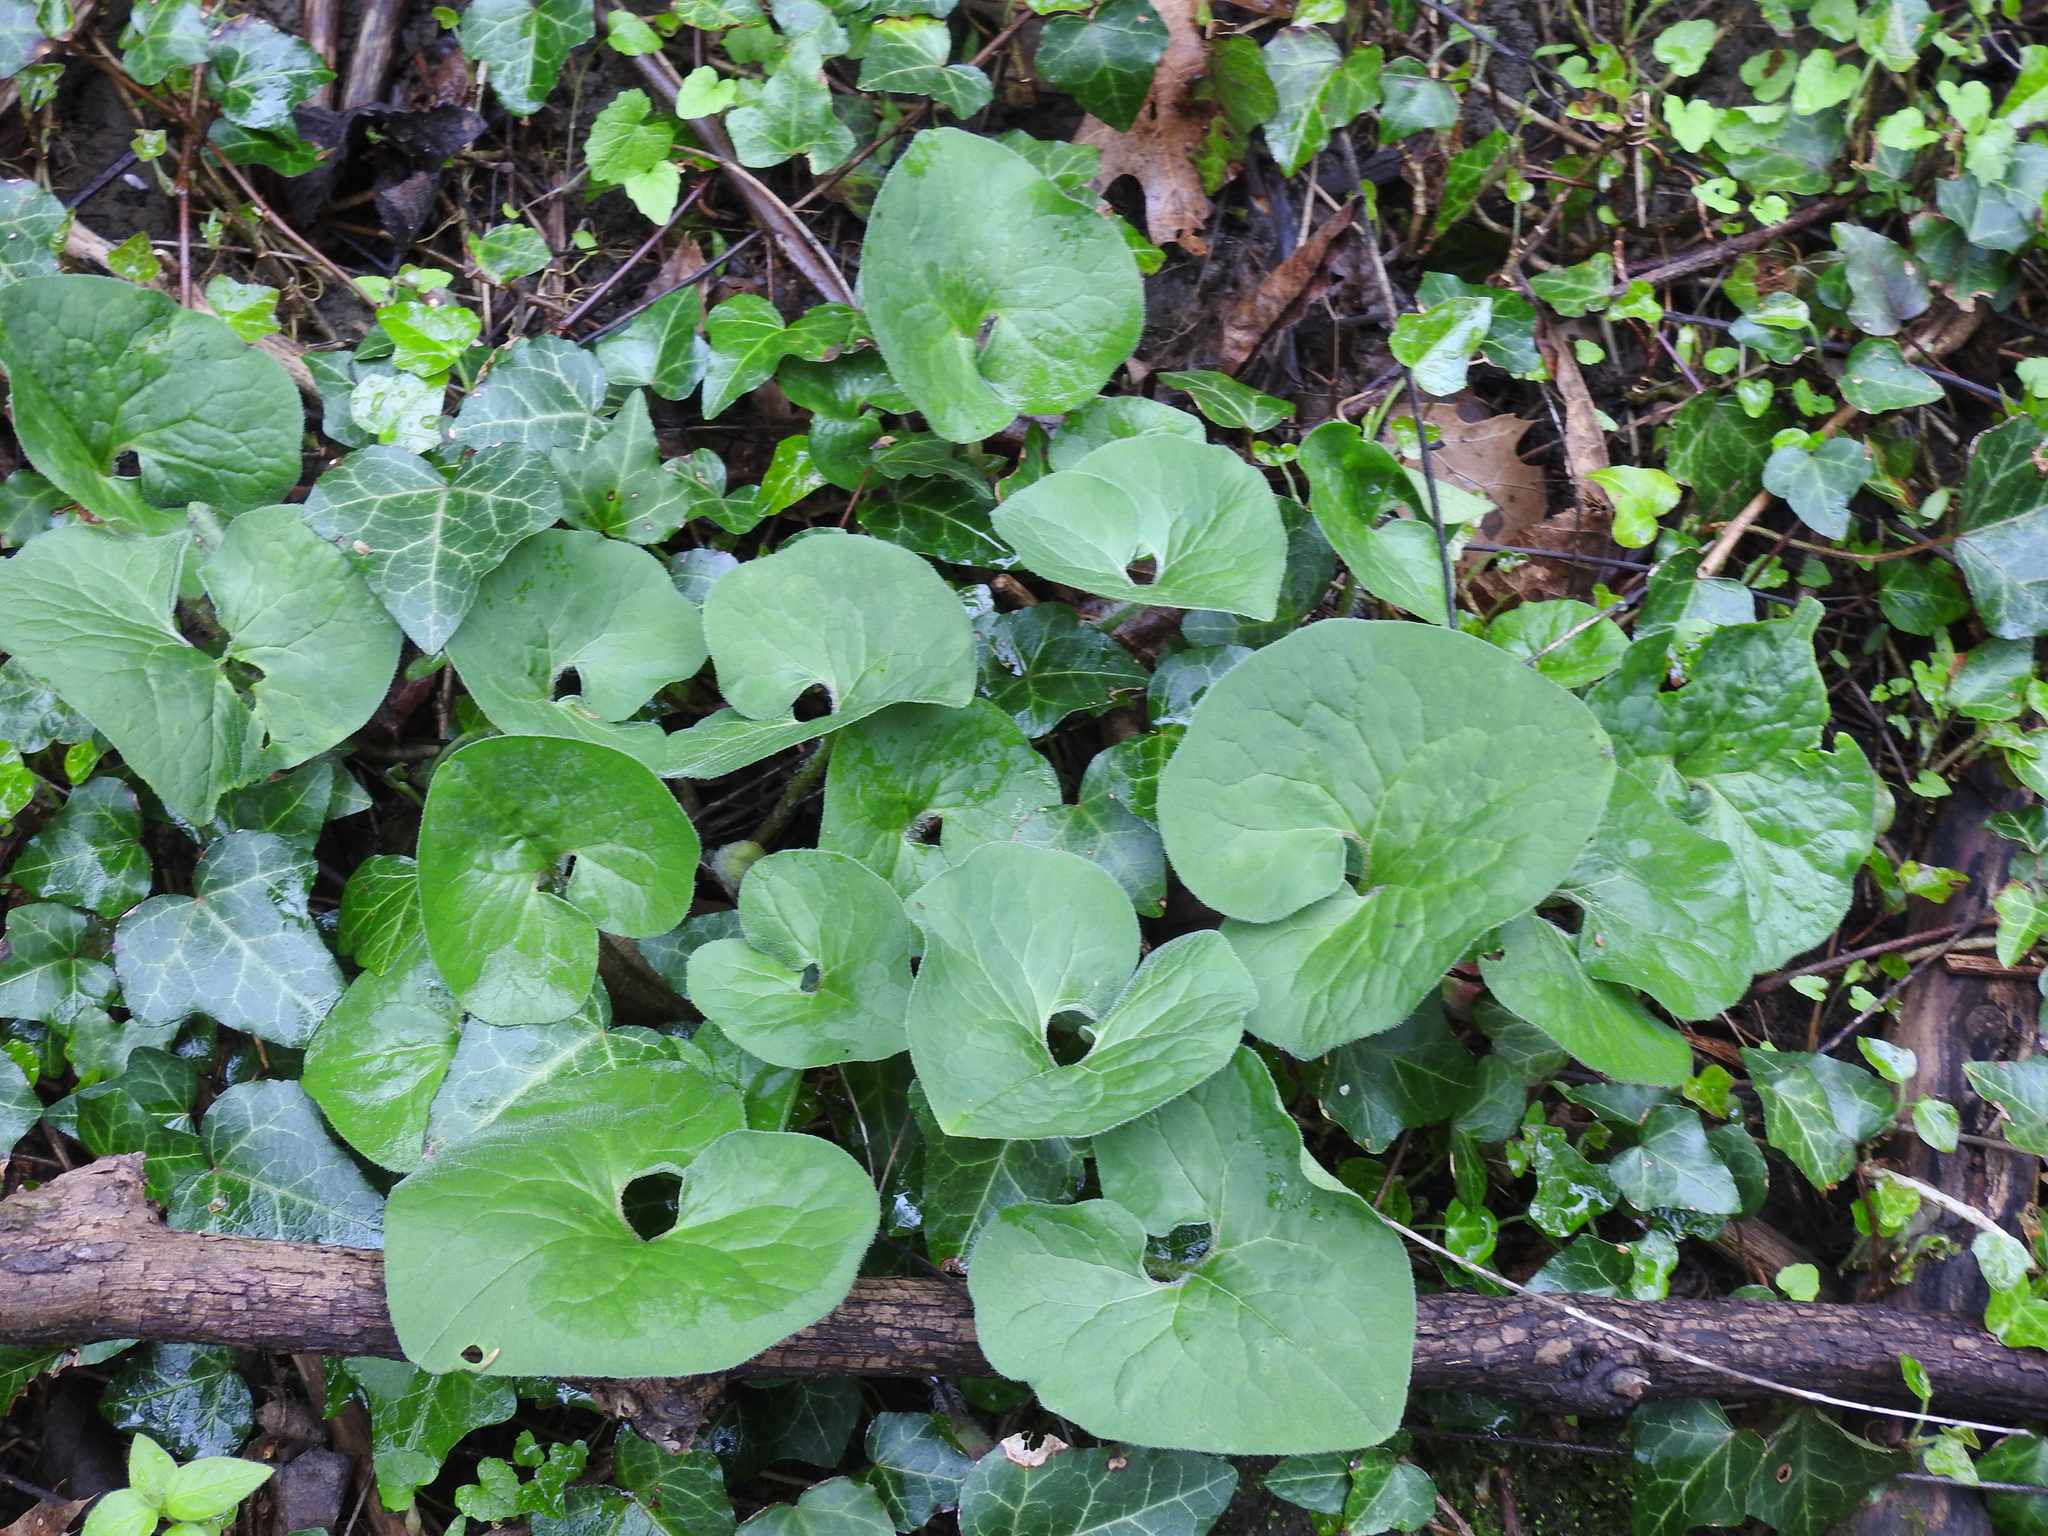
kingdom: Plantae
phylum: Tracheophyta
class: Magnoliopsida
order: Piperales
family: Aristolochiaceae
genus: Asarum
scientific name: Asarum canadense
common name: Wild ginger
